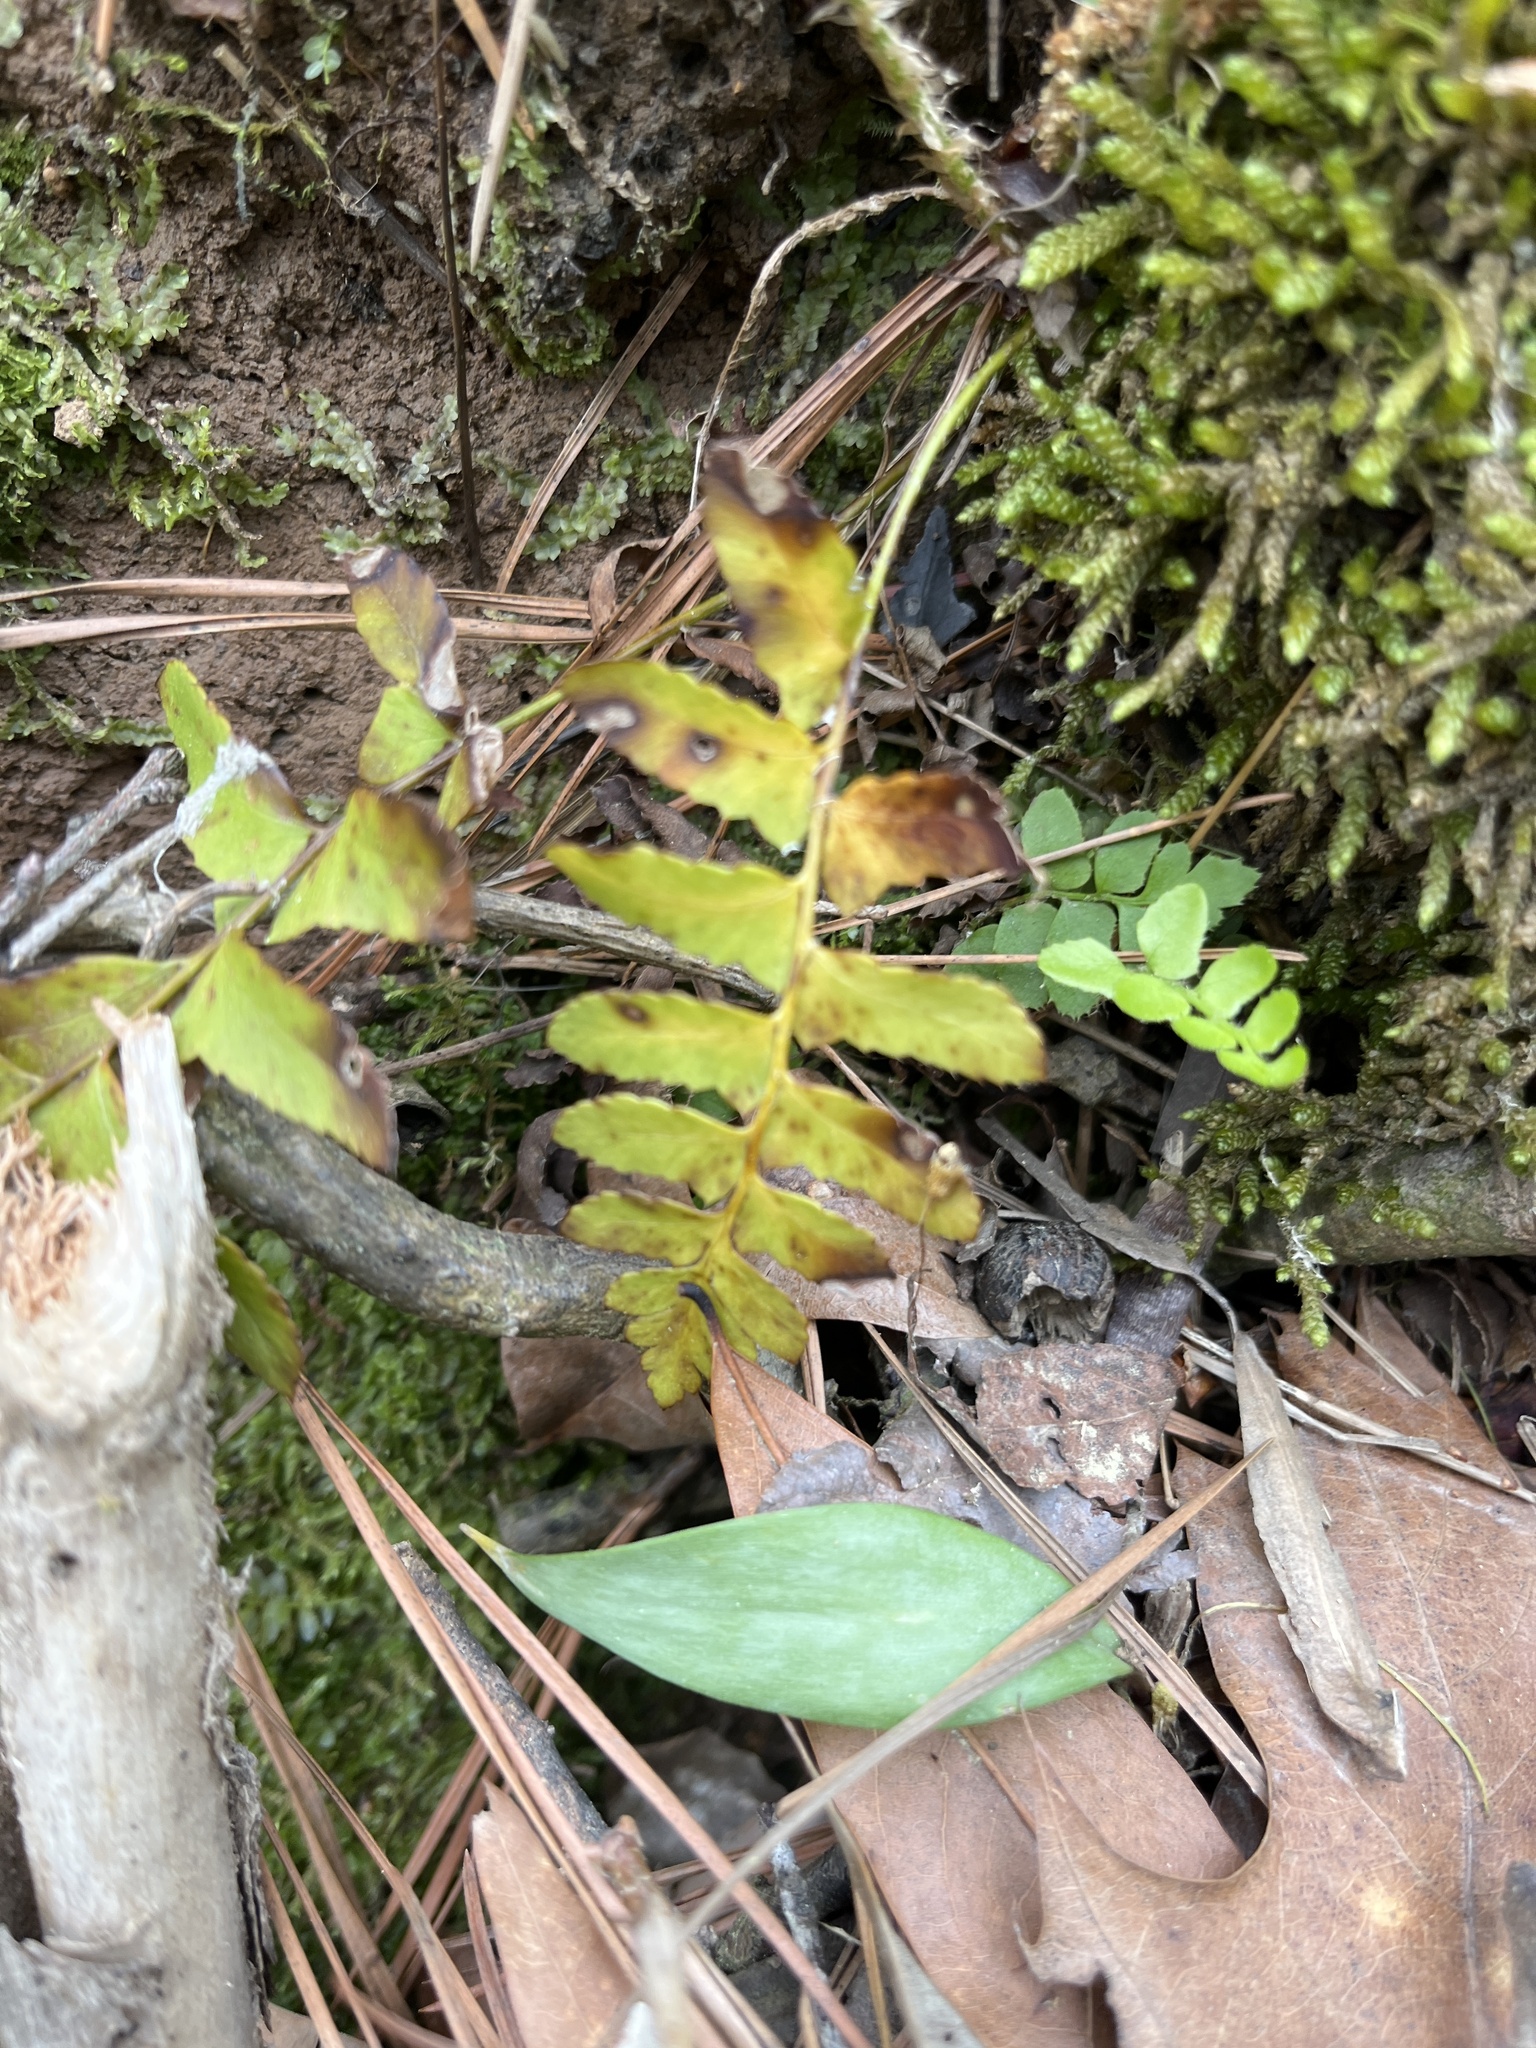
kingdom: Plantae
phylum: Tracheophyta
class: Polypodiopsida
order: Polypodiales
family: Dryopteridaceae
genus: Polystichum
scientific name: Polystichum acrostichoides
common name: Christmas fern
